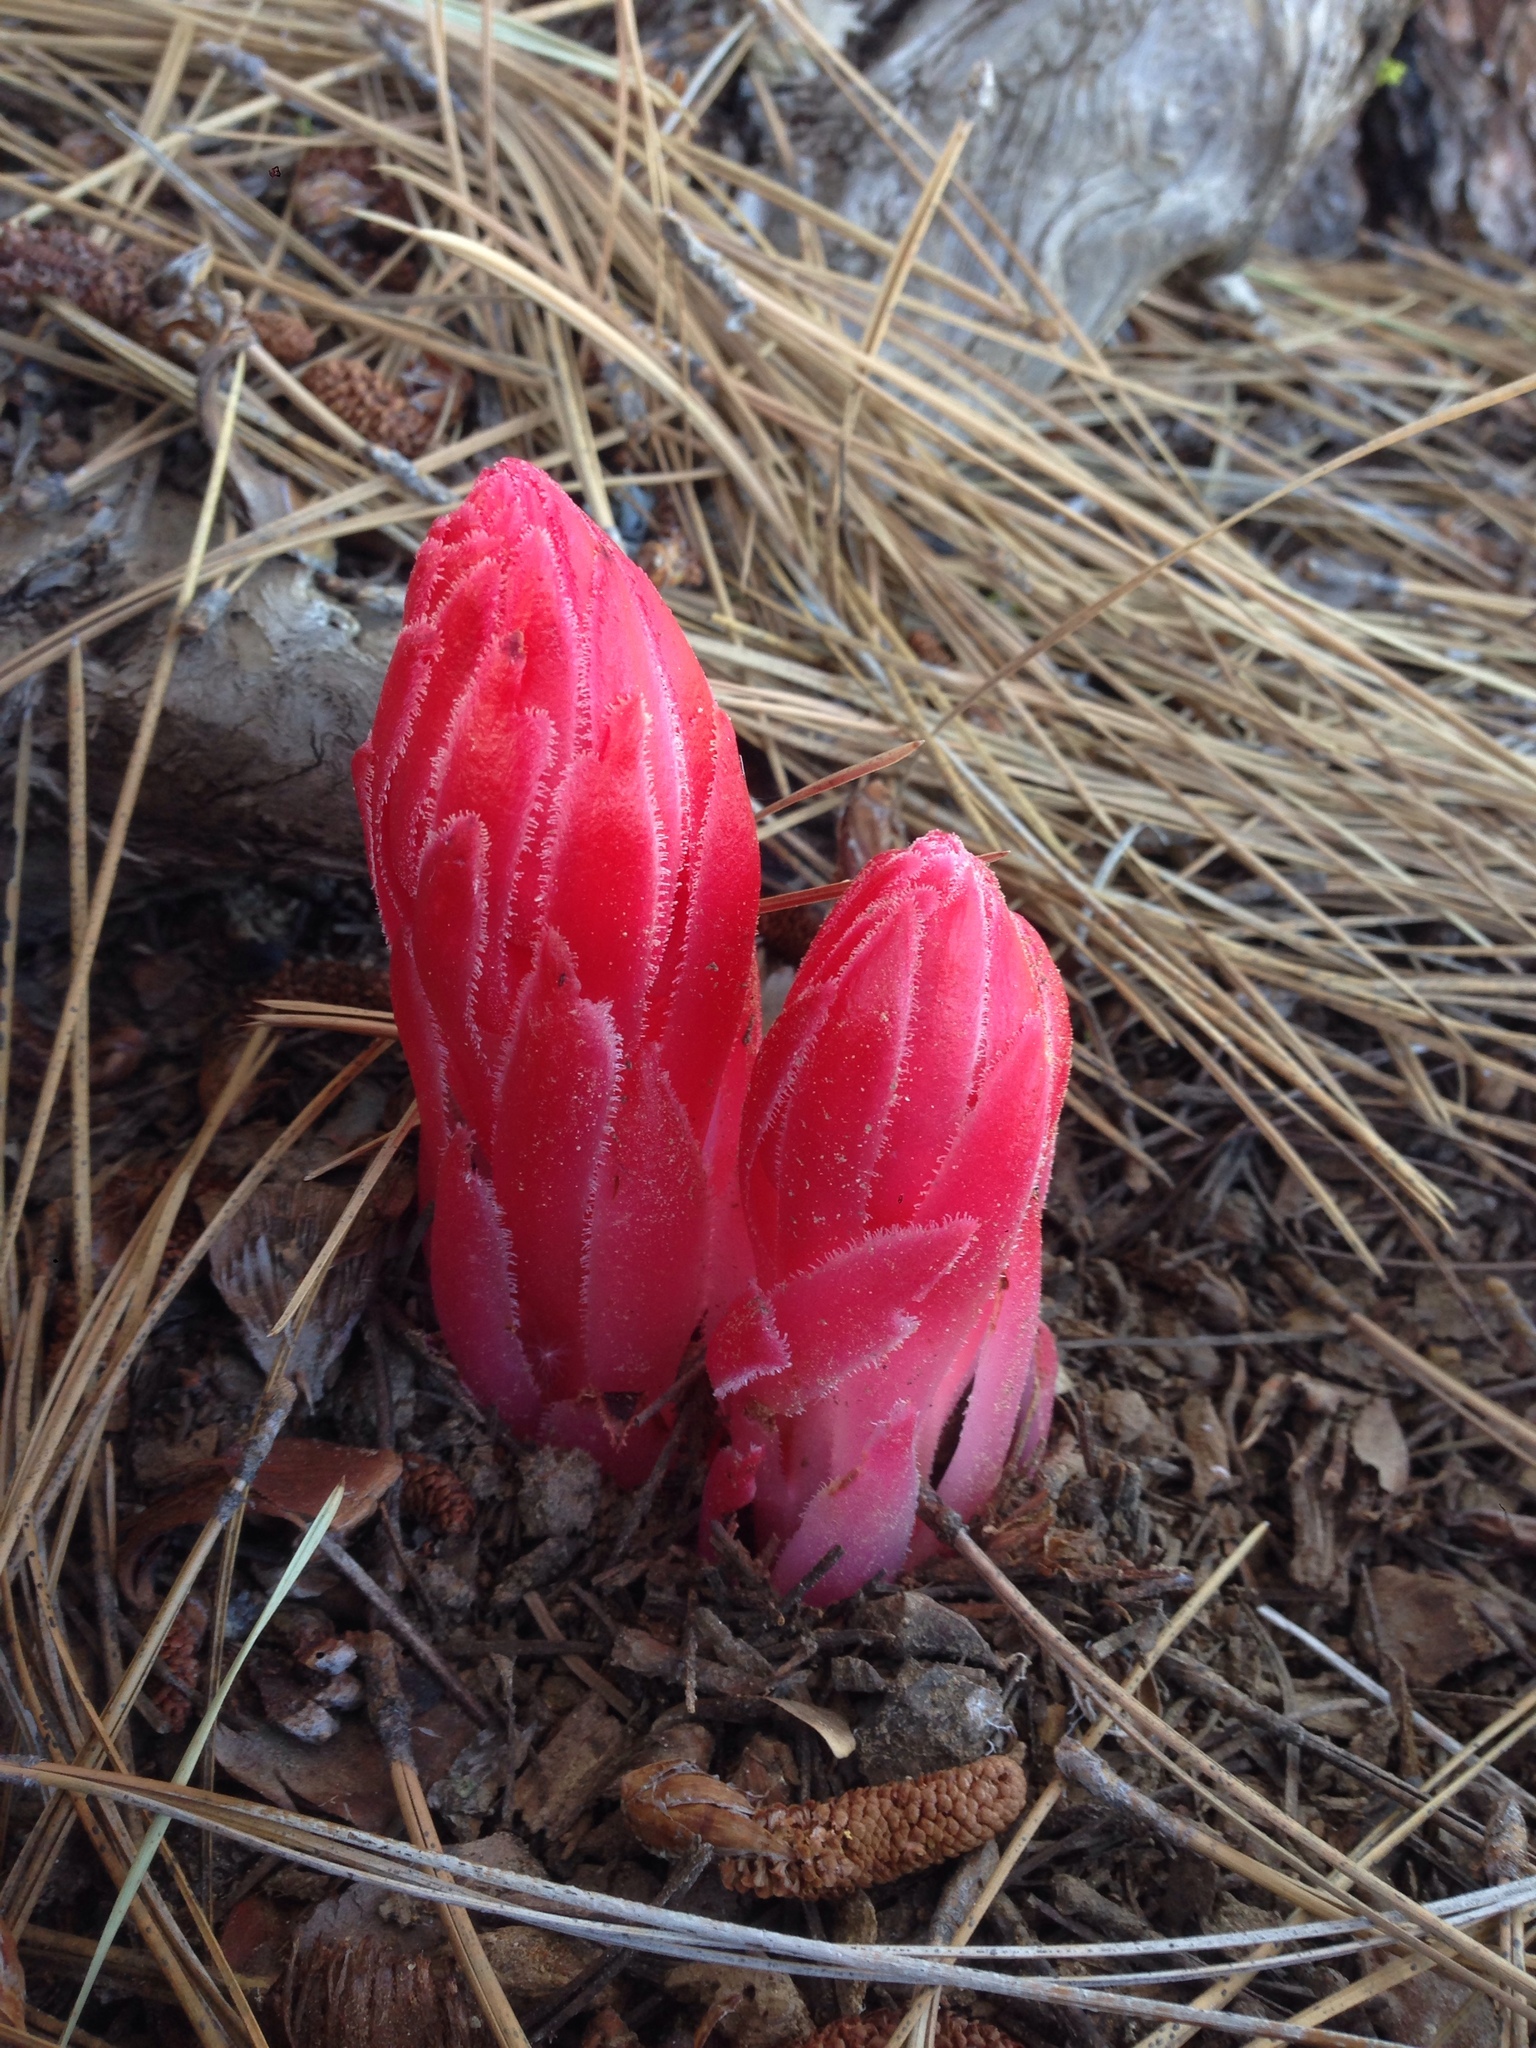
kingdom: Plantae
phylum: Tracheophyta
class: Magnoliopsida
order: Ericales
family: Ericaceae
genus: Sarcodes
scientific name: Sarcodes sanguinea
